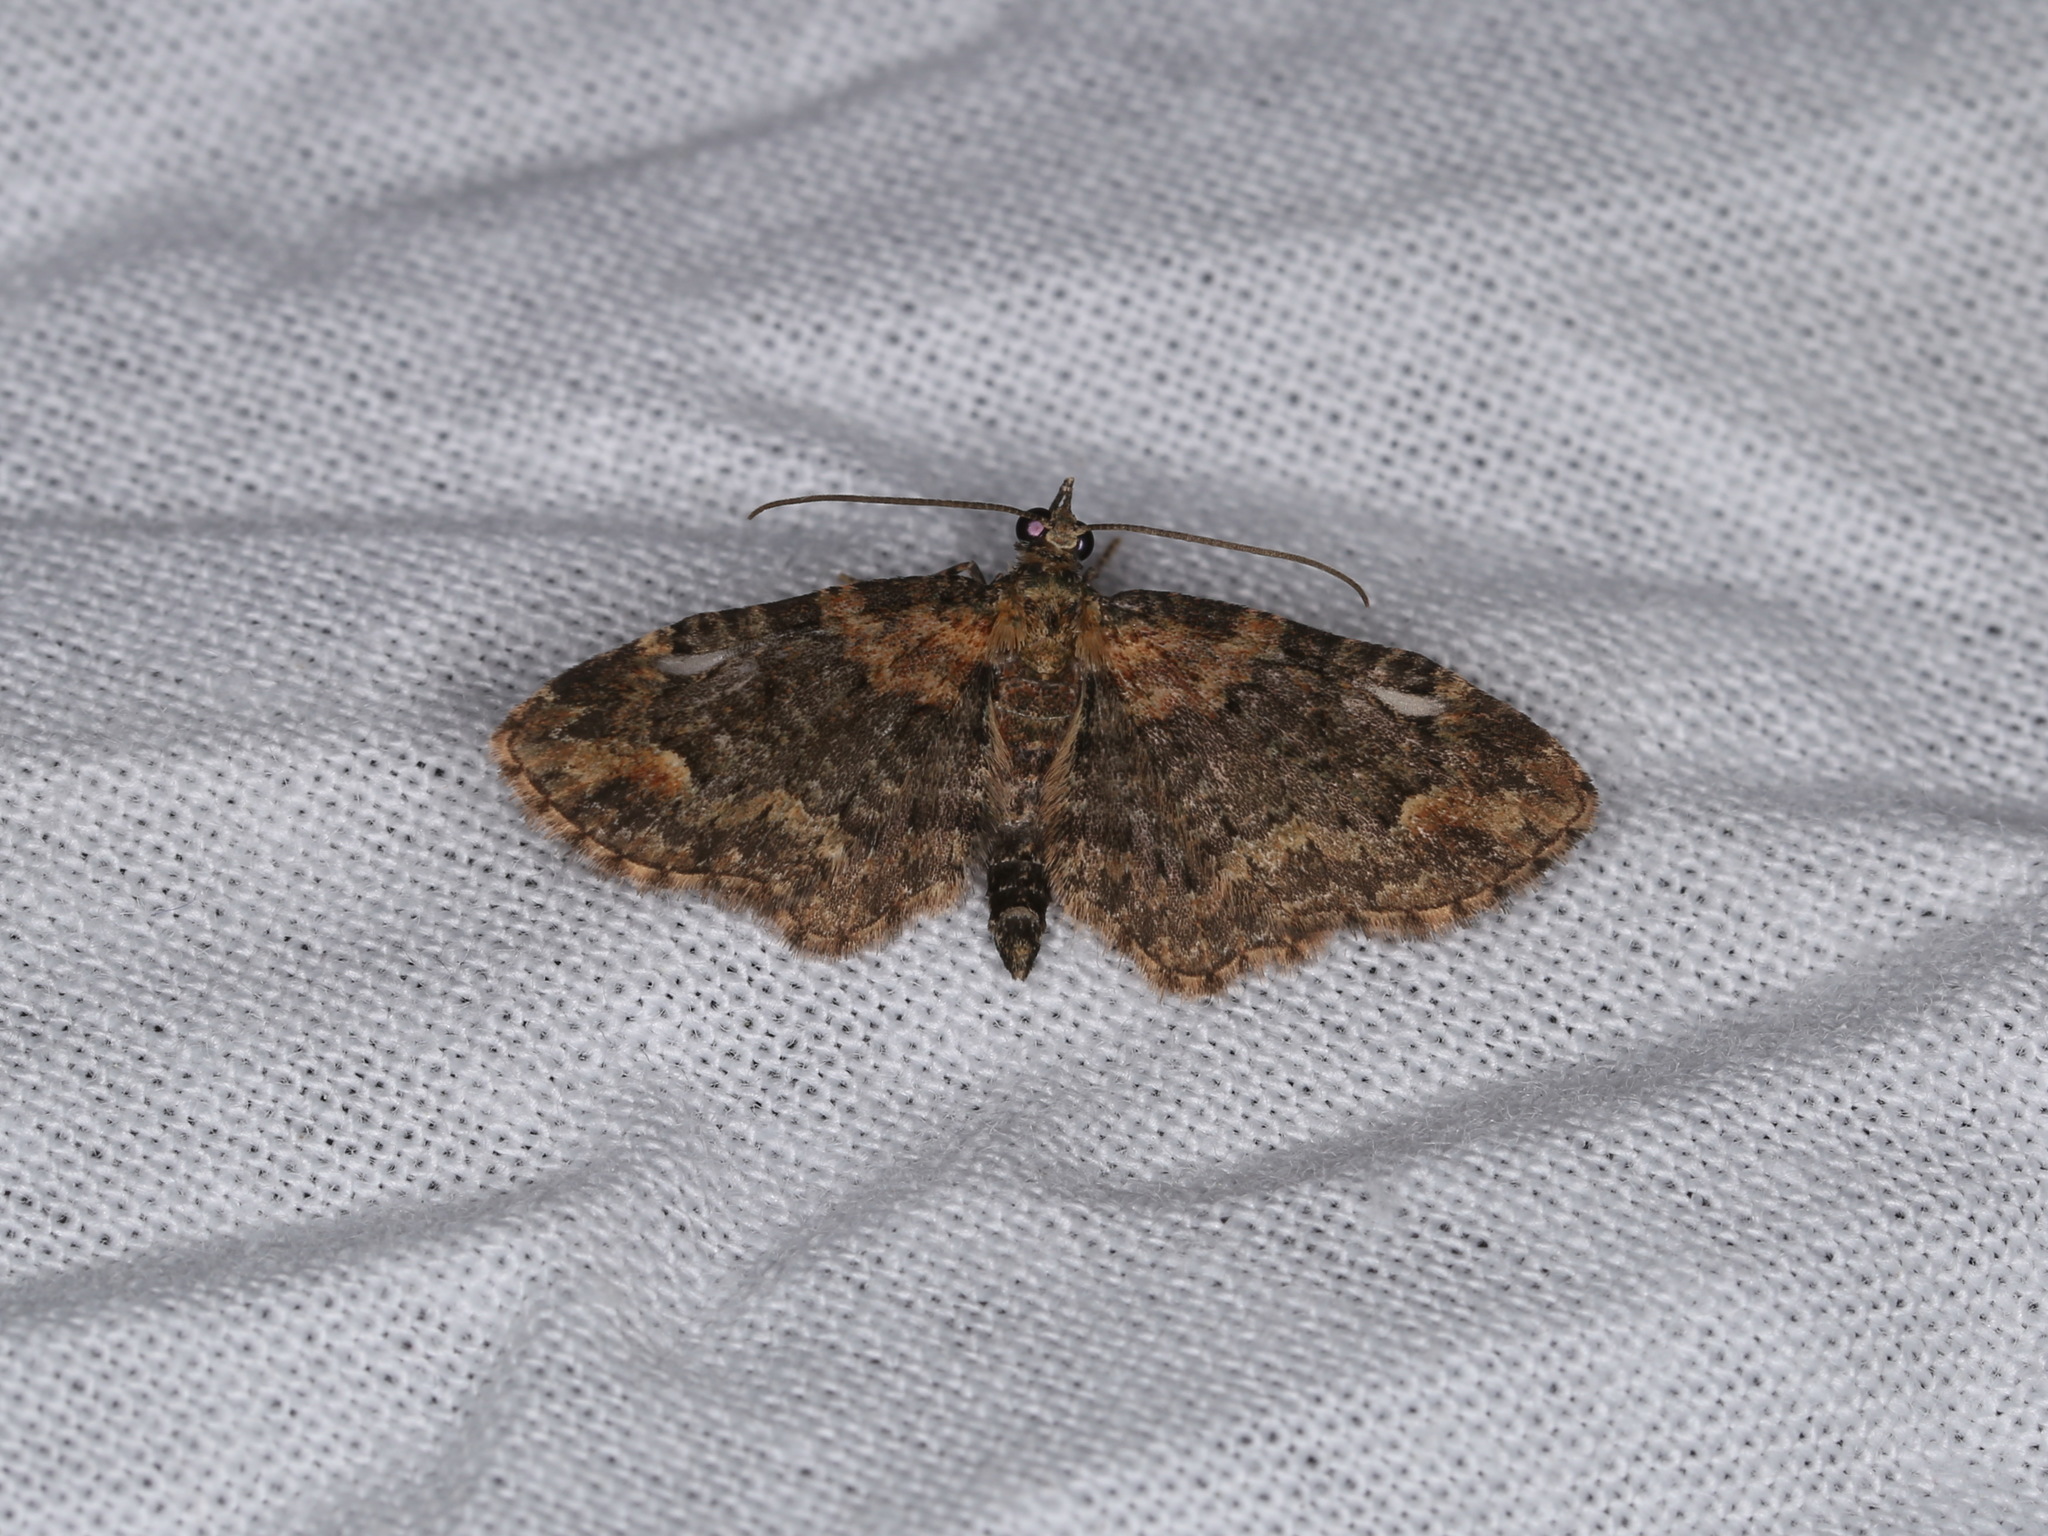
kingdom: Animalia
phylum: Arthropoda
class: Insecta
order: Lepidoptera
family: Geometridae
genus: Pasiphilodes
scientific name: Pasiphilodes testulata
